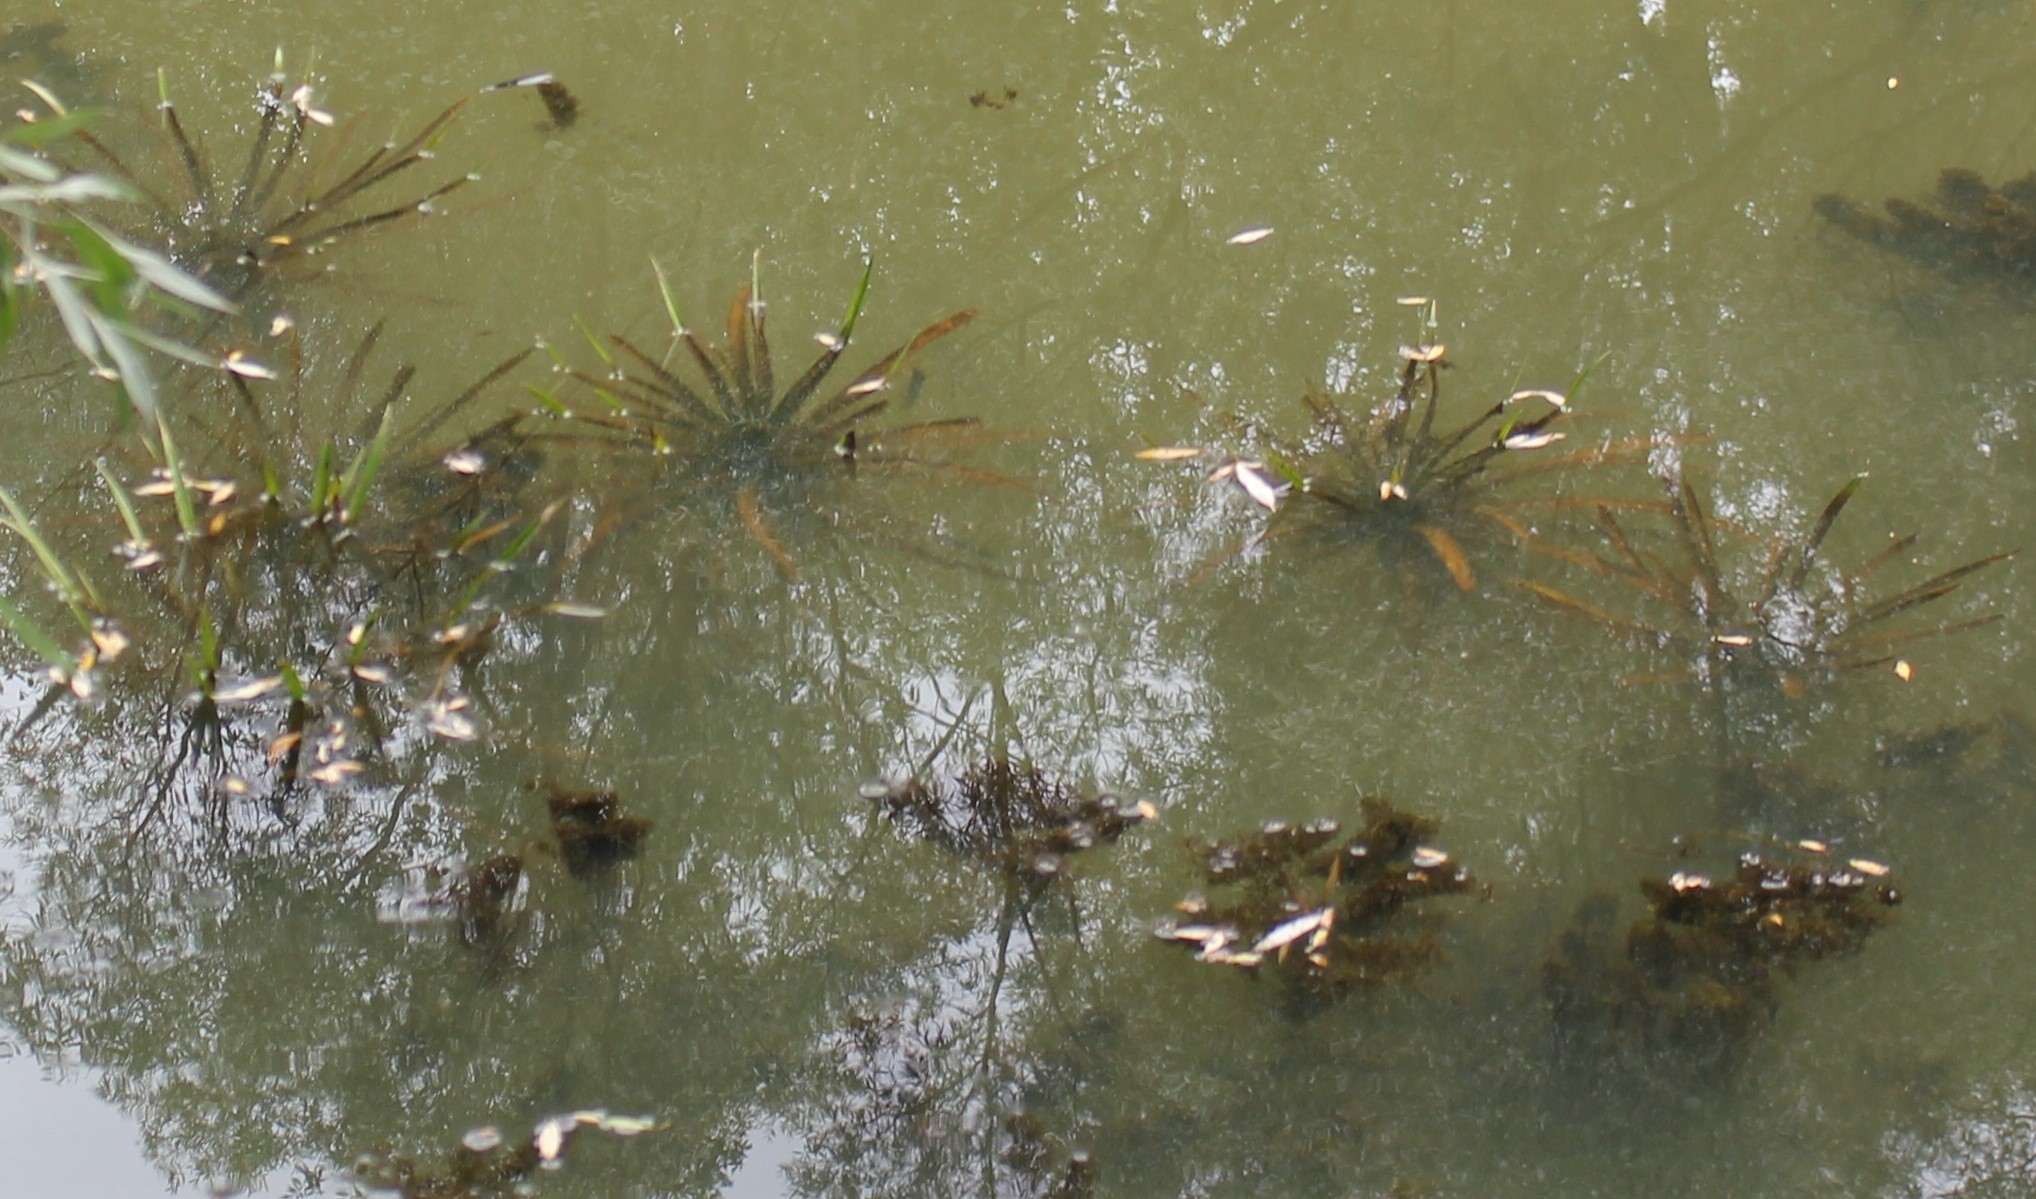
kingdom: Plantae
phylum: Tracheophyta
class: Liliopsida
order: Alismatales
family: Hydrocharitaceae
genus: Stratiotes
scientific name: Stratiotes aloides
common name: Water-soldier
